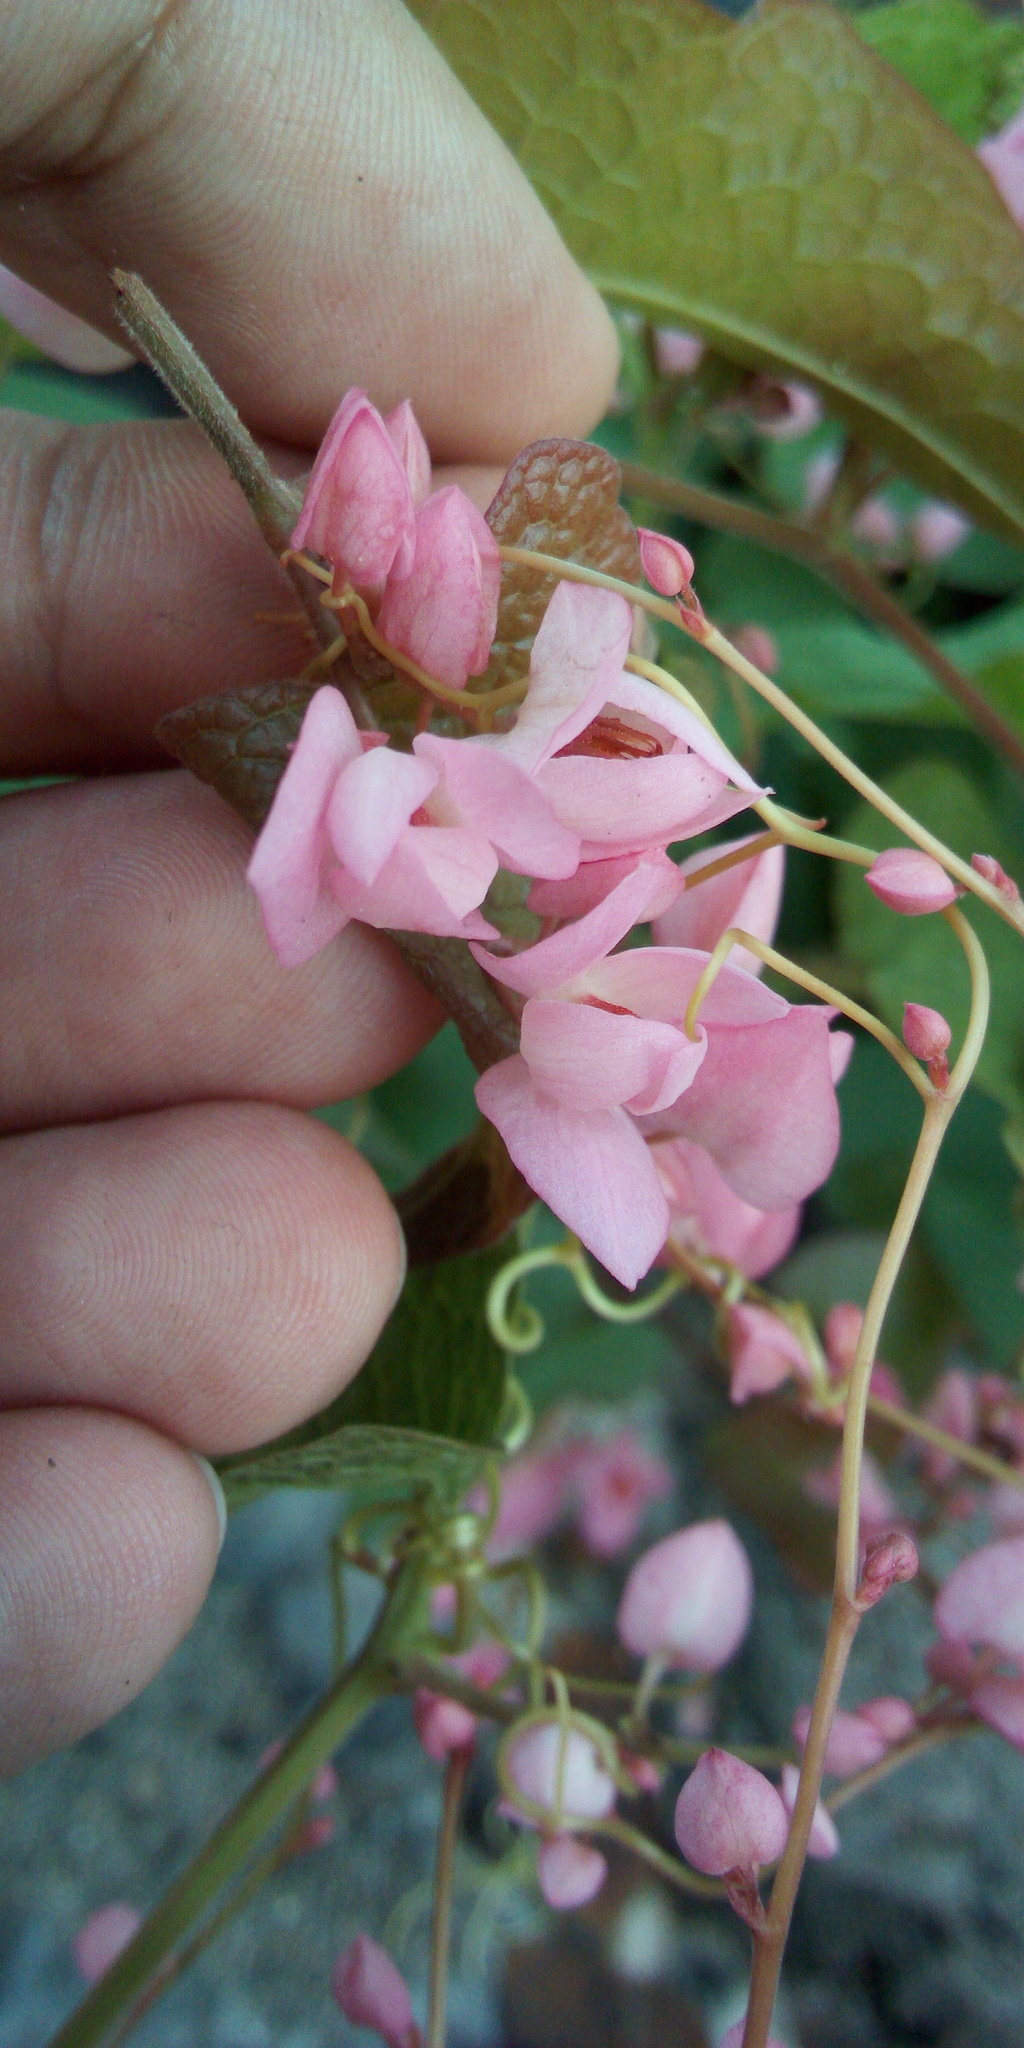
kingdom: Plantae
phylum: Tracheophyta
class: Magnoliopsida
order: Caryophyllales
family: Polygonaceae
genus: Antigonon
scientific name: Antigonon leptopus
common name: Coral vine
